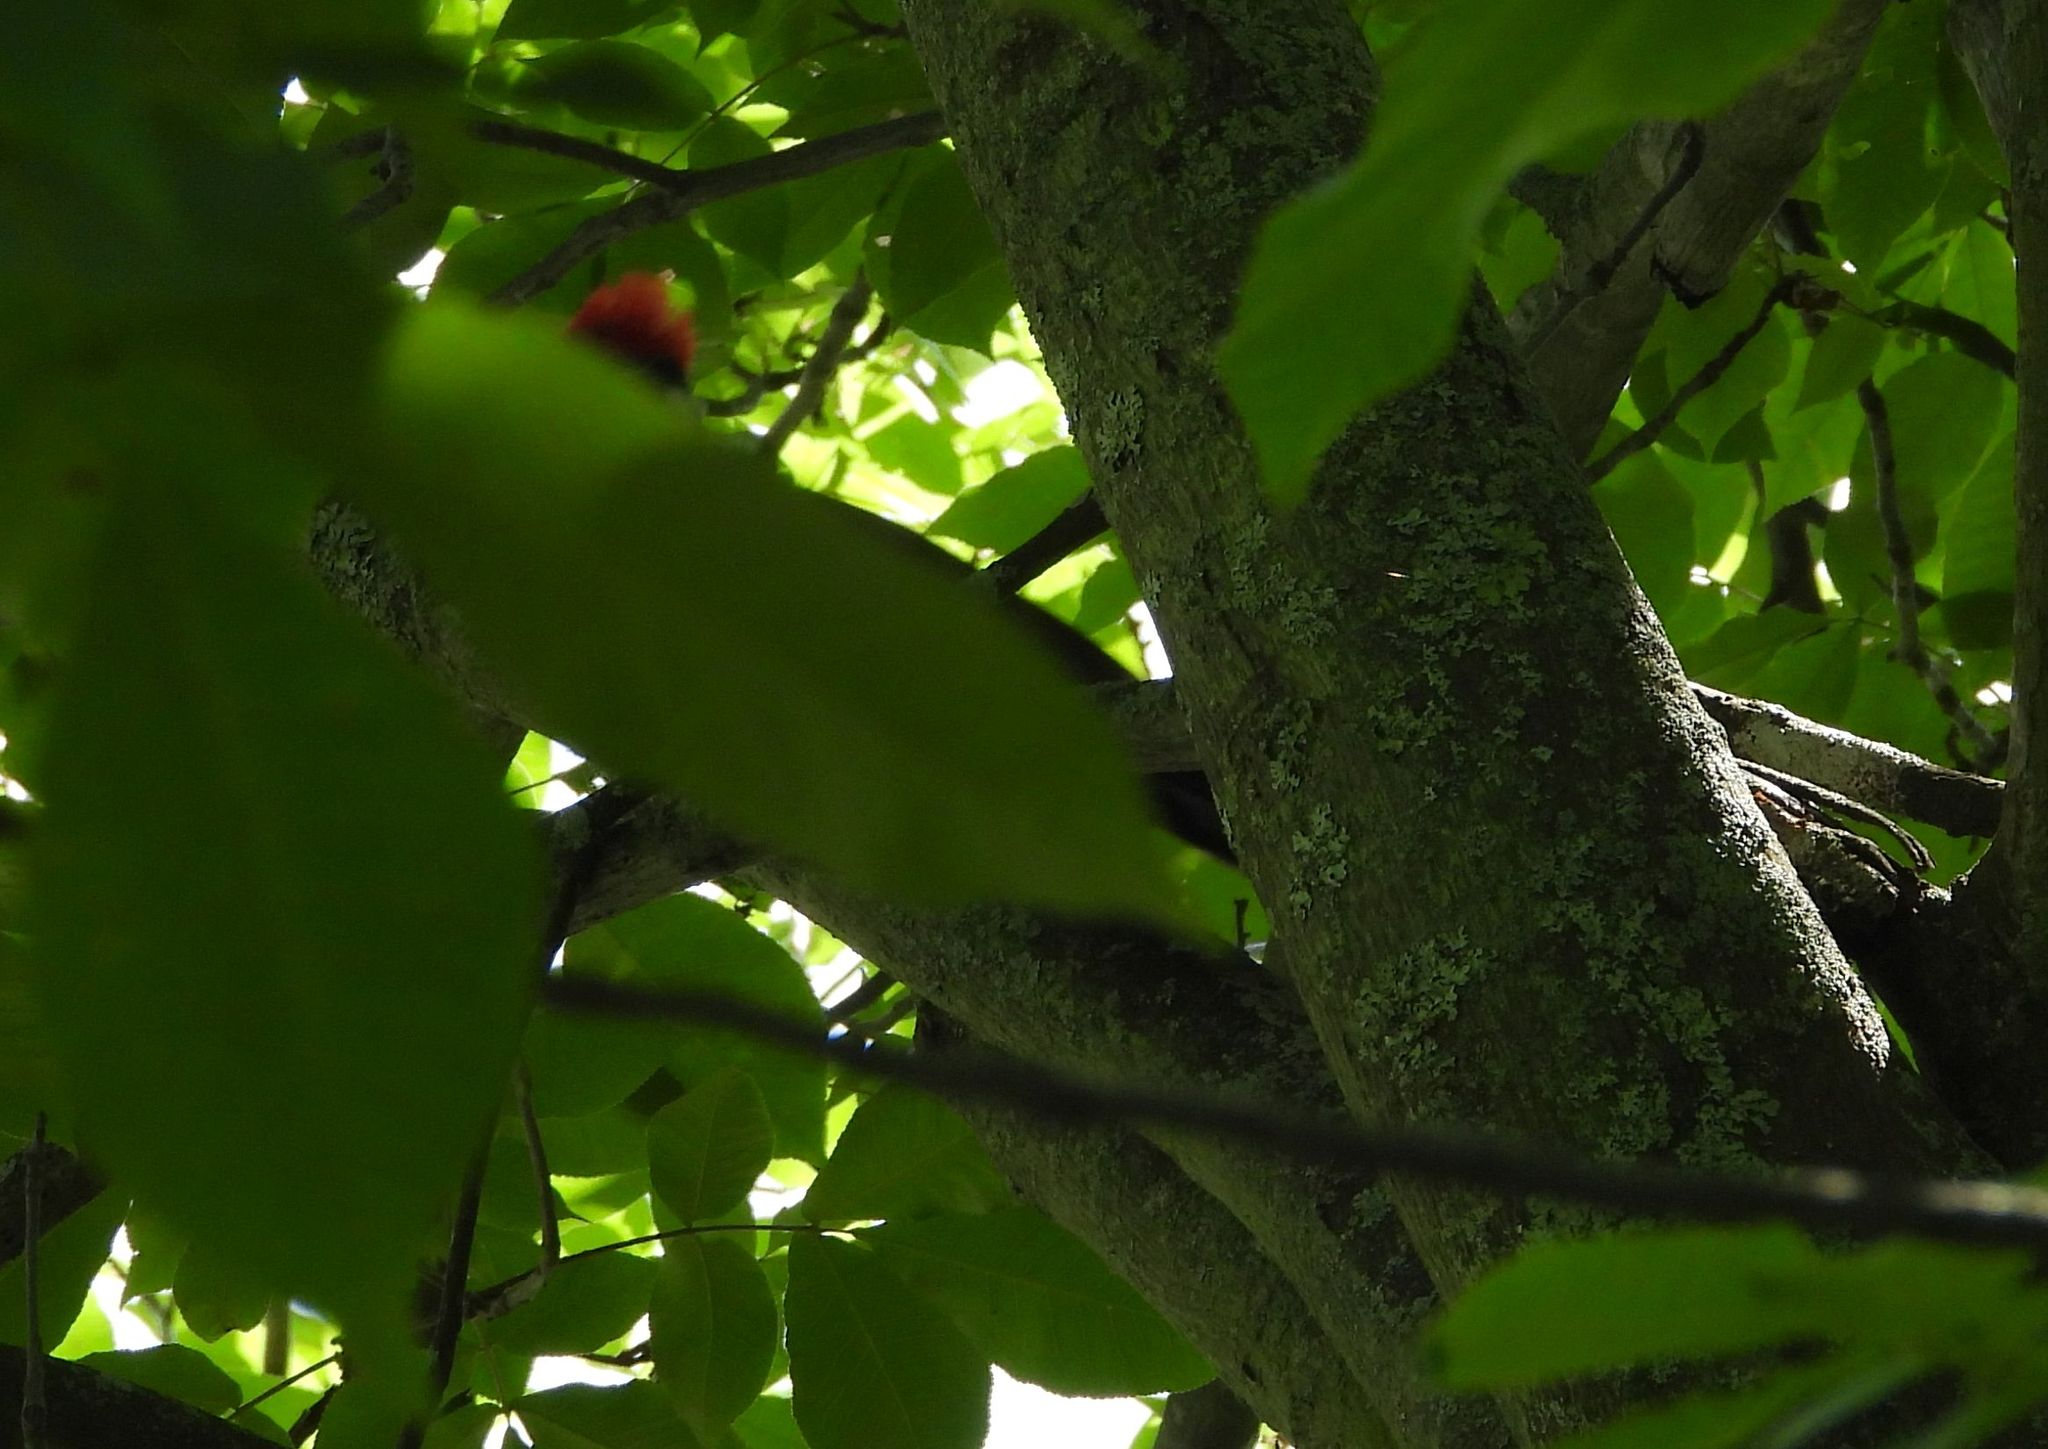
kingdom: Animalia
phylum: Chordata
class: Aves
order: Piciformes
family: Picidae
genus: Dryocopus
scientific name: Dryocopus pileatus
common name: Pileated woodpecker
